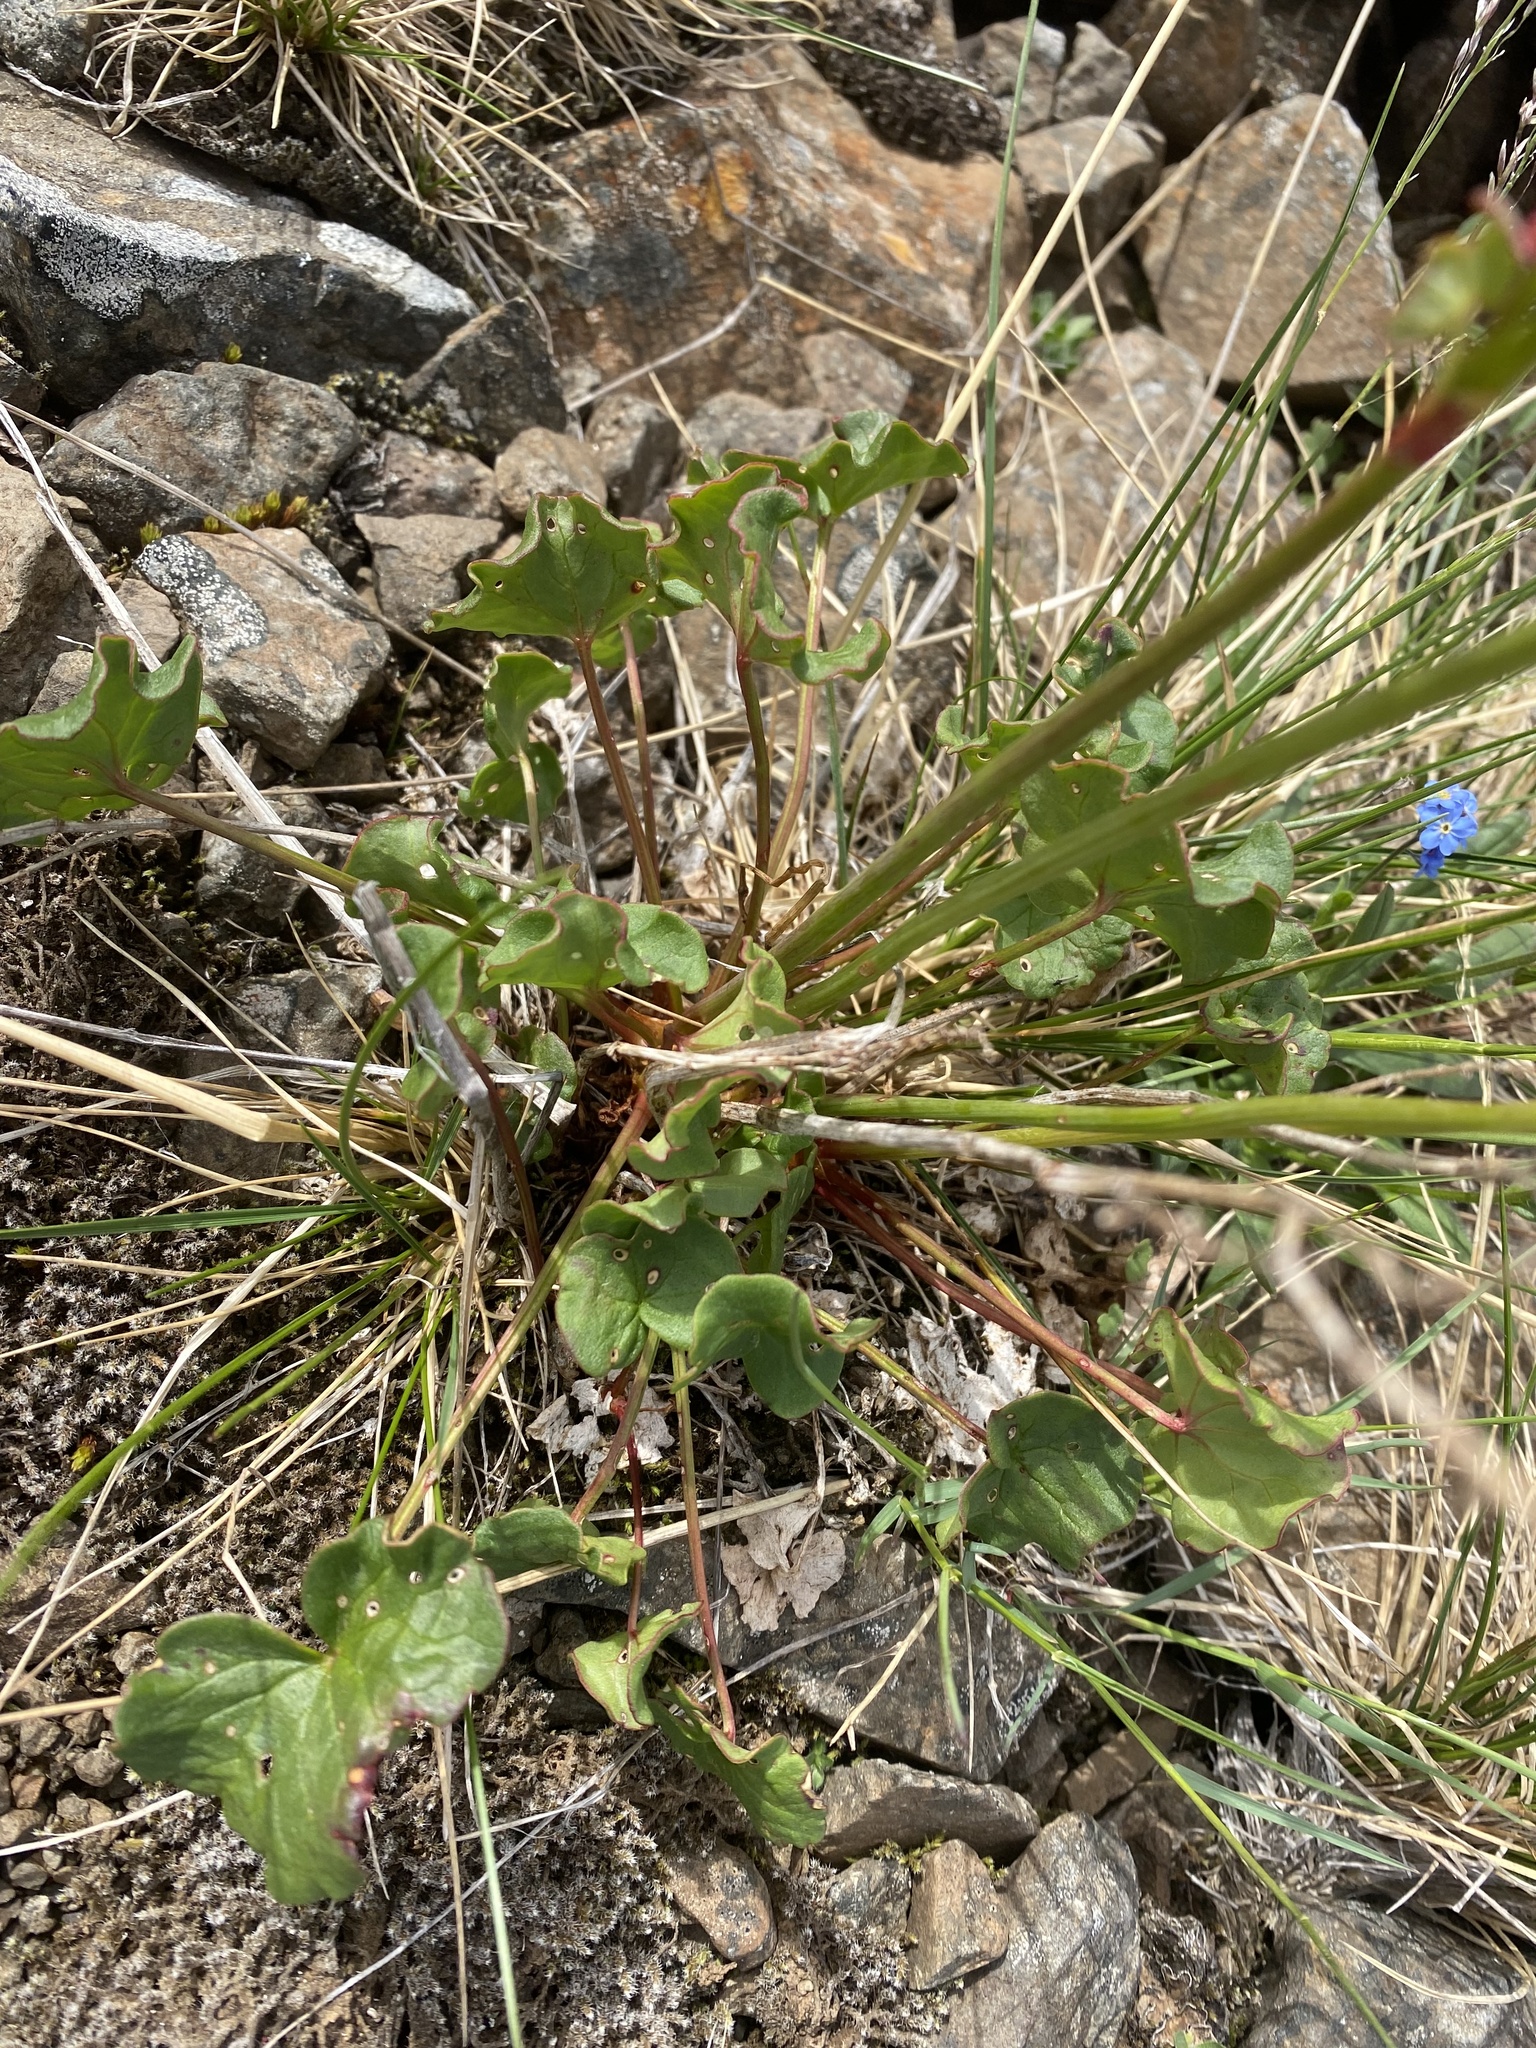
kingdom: Plantae
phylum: Tracheophyta
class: Liliopsida
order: Poales
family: Poaceae
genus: Deschampsia
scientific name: Deschampsia cespitosa
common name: Tufted hair-grass
